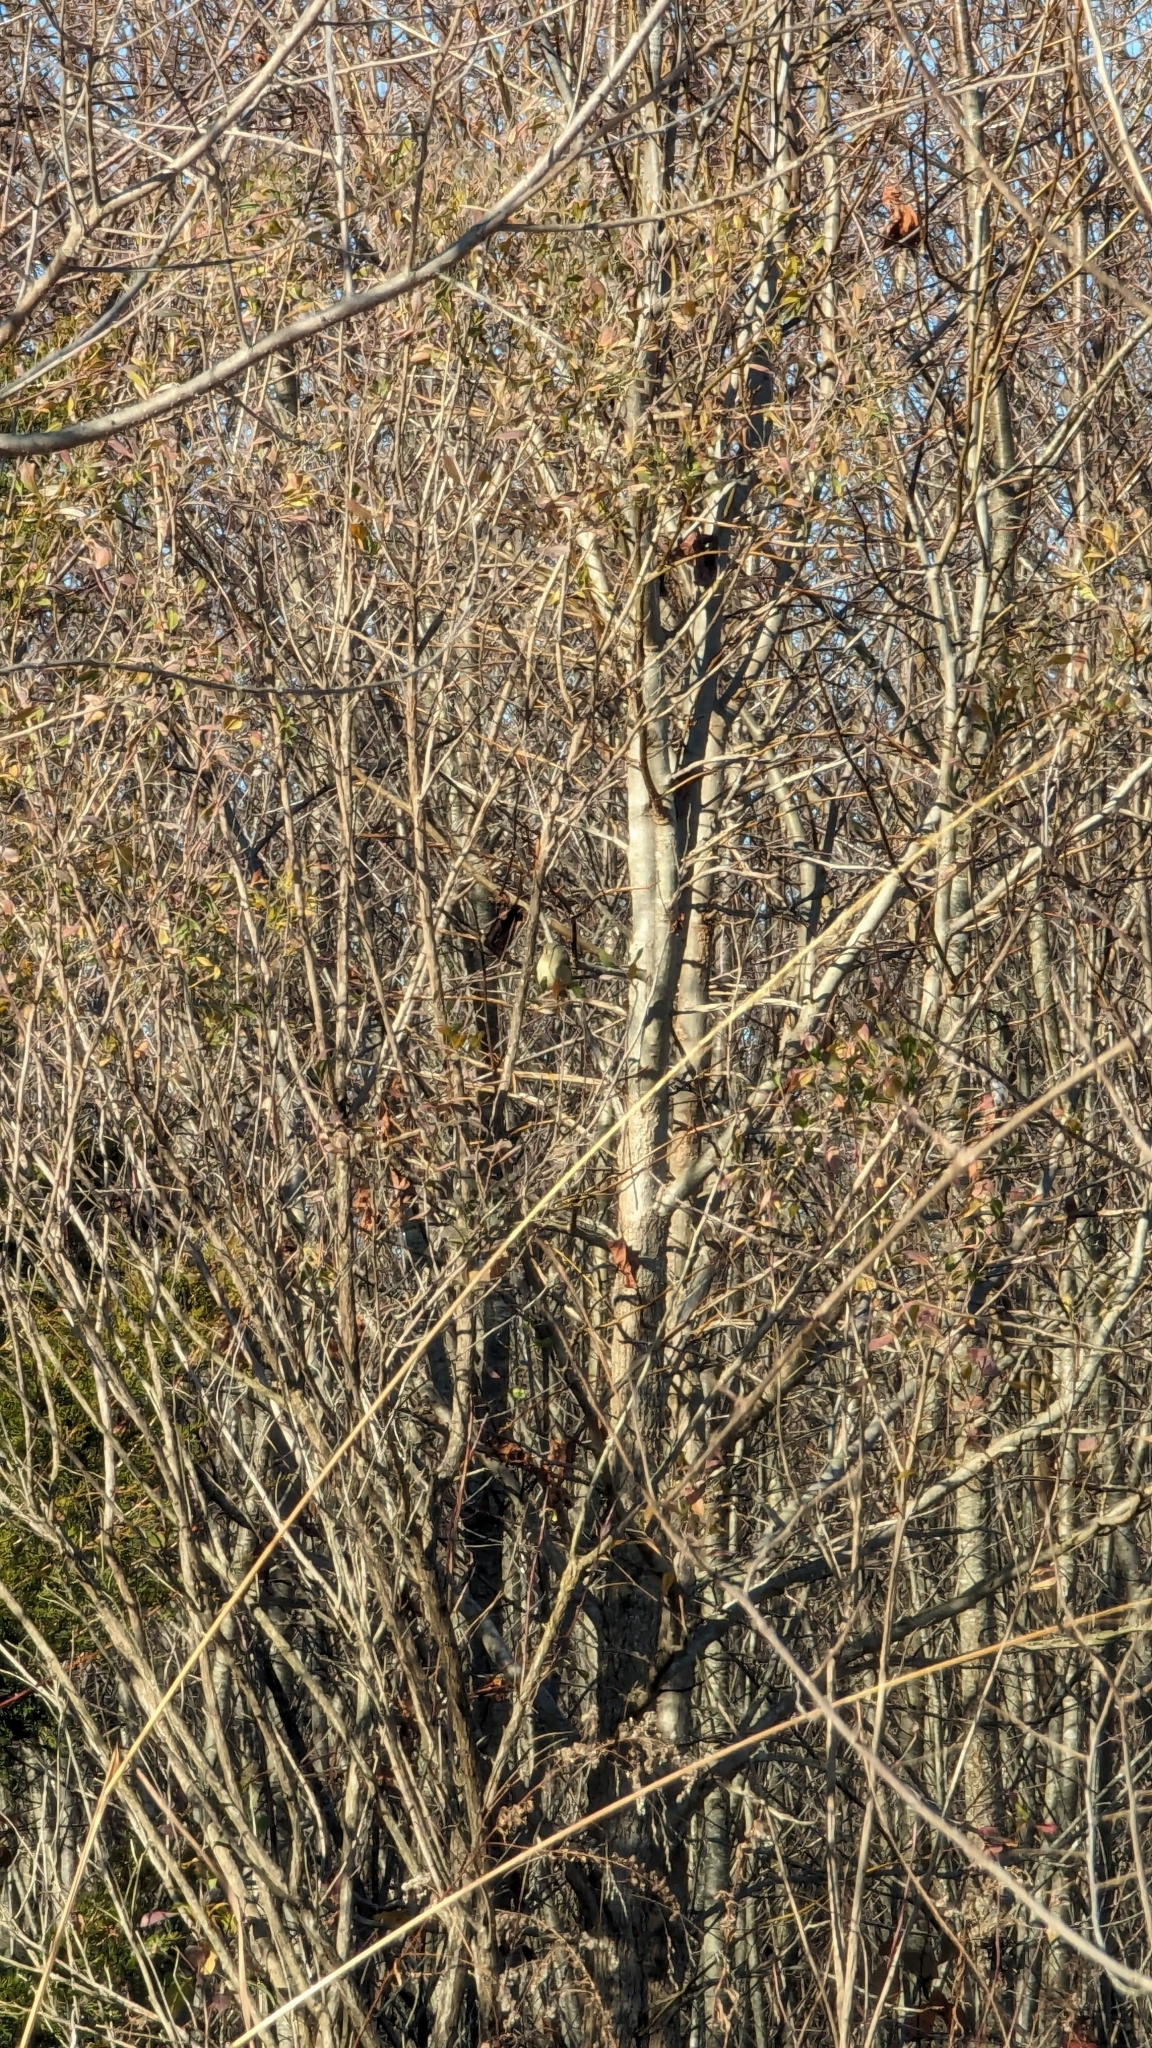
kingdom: Animalia
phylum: Chordata
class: Aves
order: Passeriformes
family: Regulidae
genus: Regulus
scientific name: Regulus calendula
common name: Ruby-crowned kinglet
